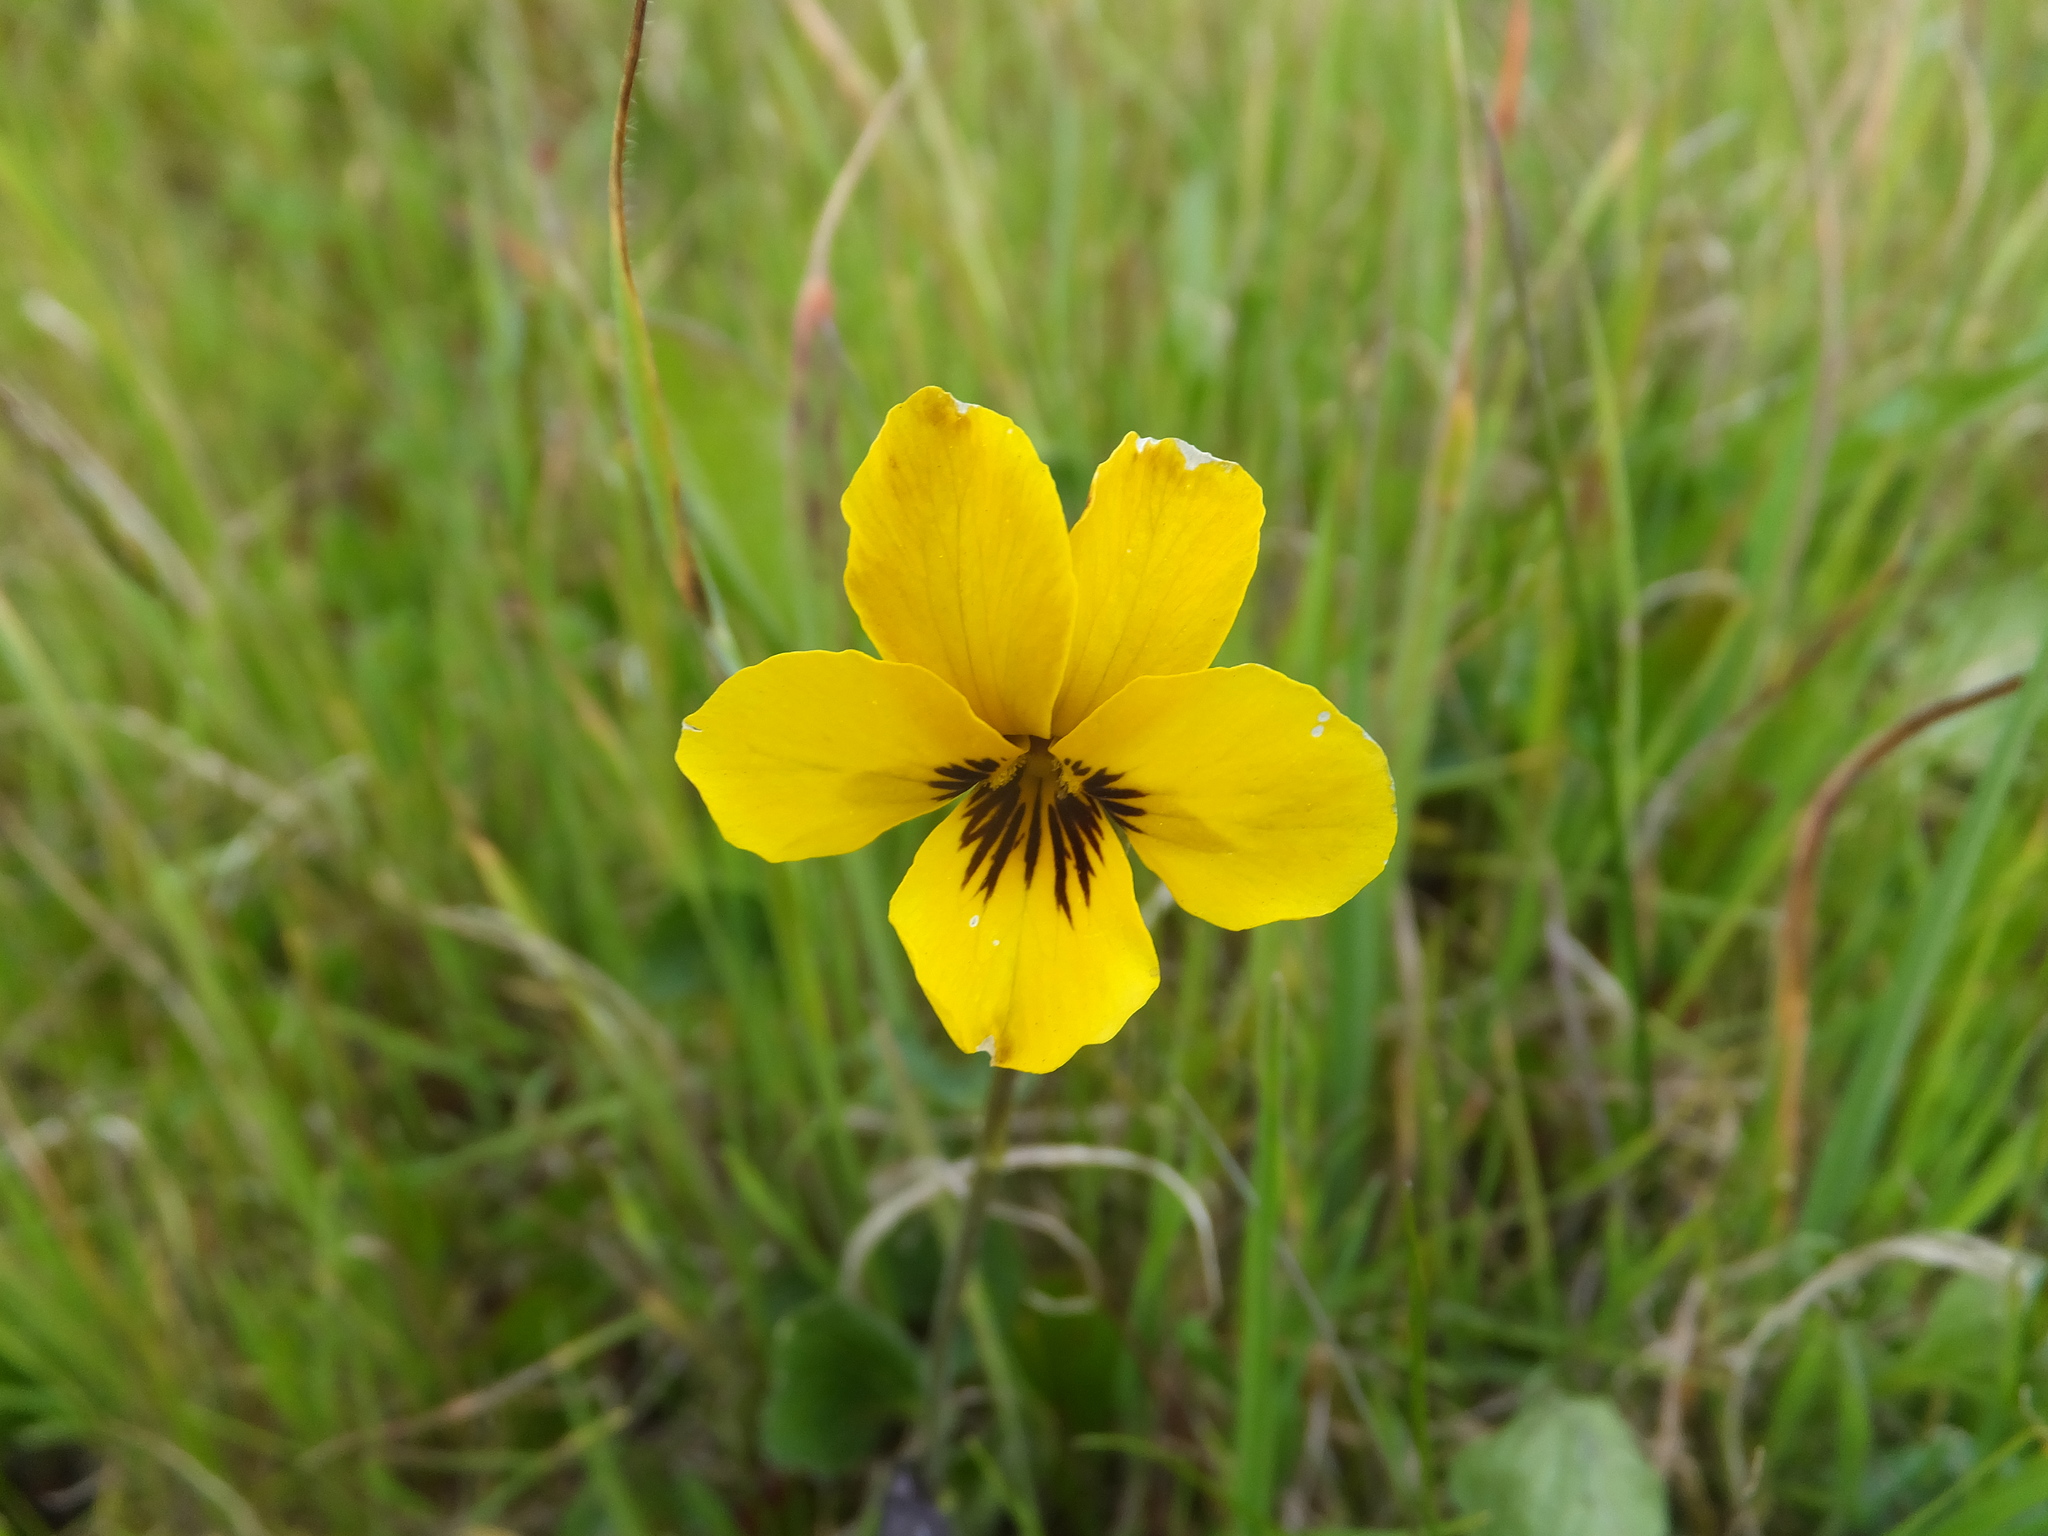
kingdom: Plantae
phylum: Tracheophyta
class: Magnoliopsida
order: Malpighiales
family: Violaceae
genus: Viola
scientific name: Viola pedunculata
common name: California golden violet
